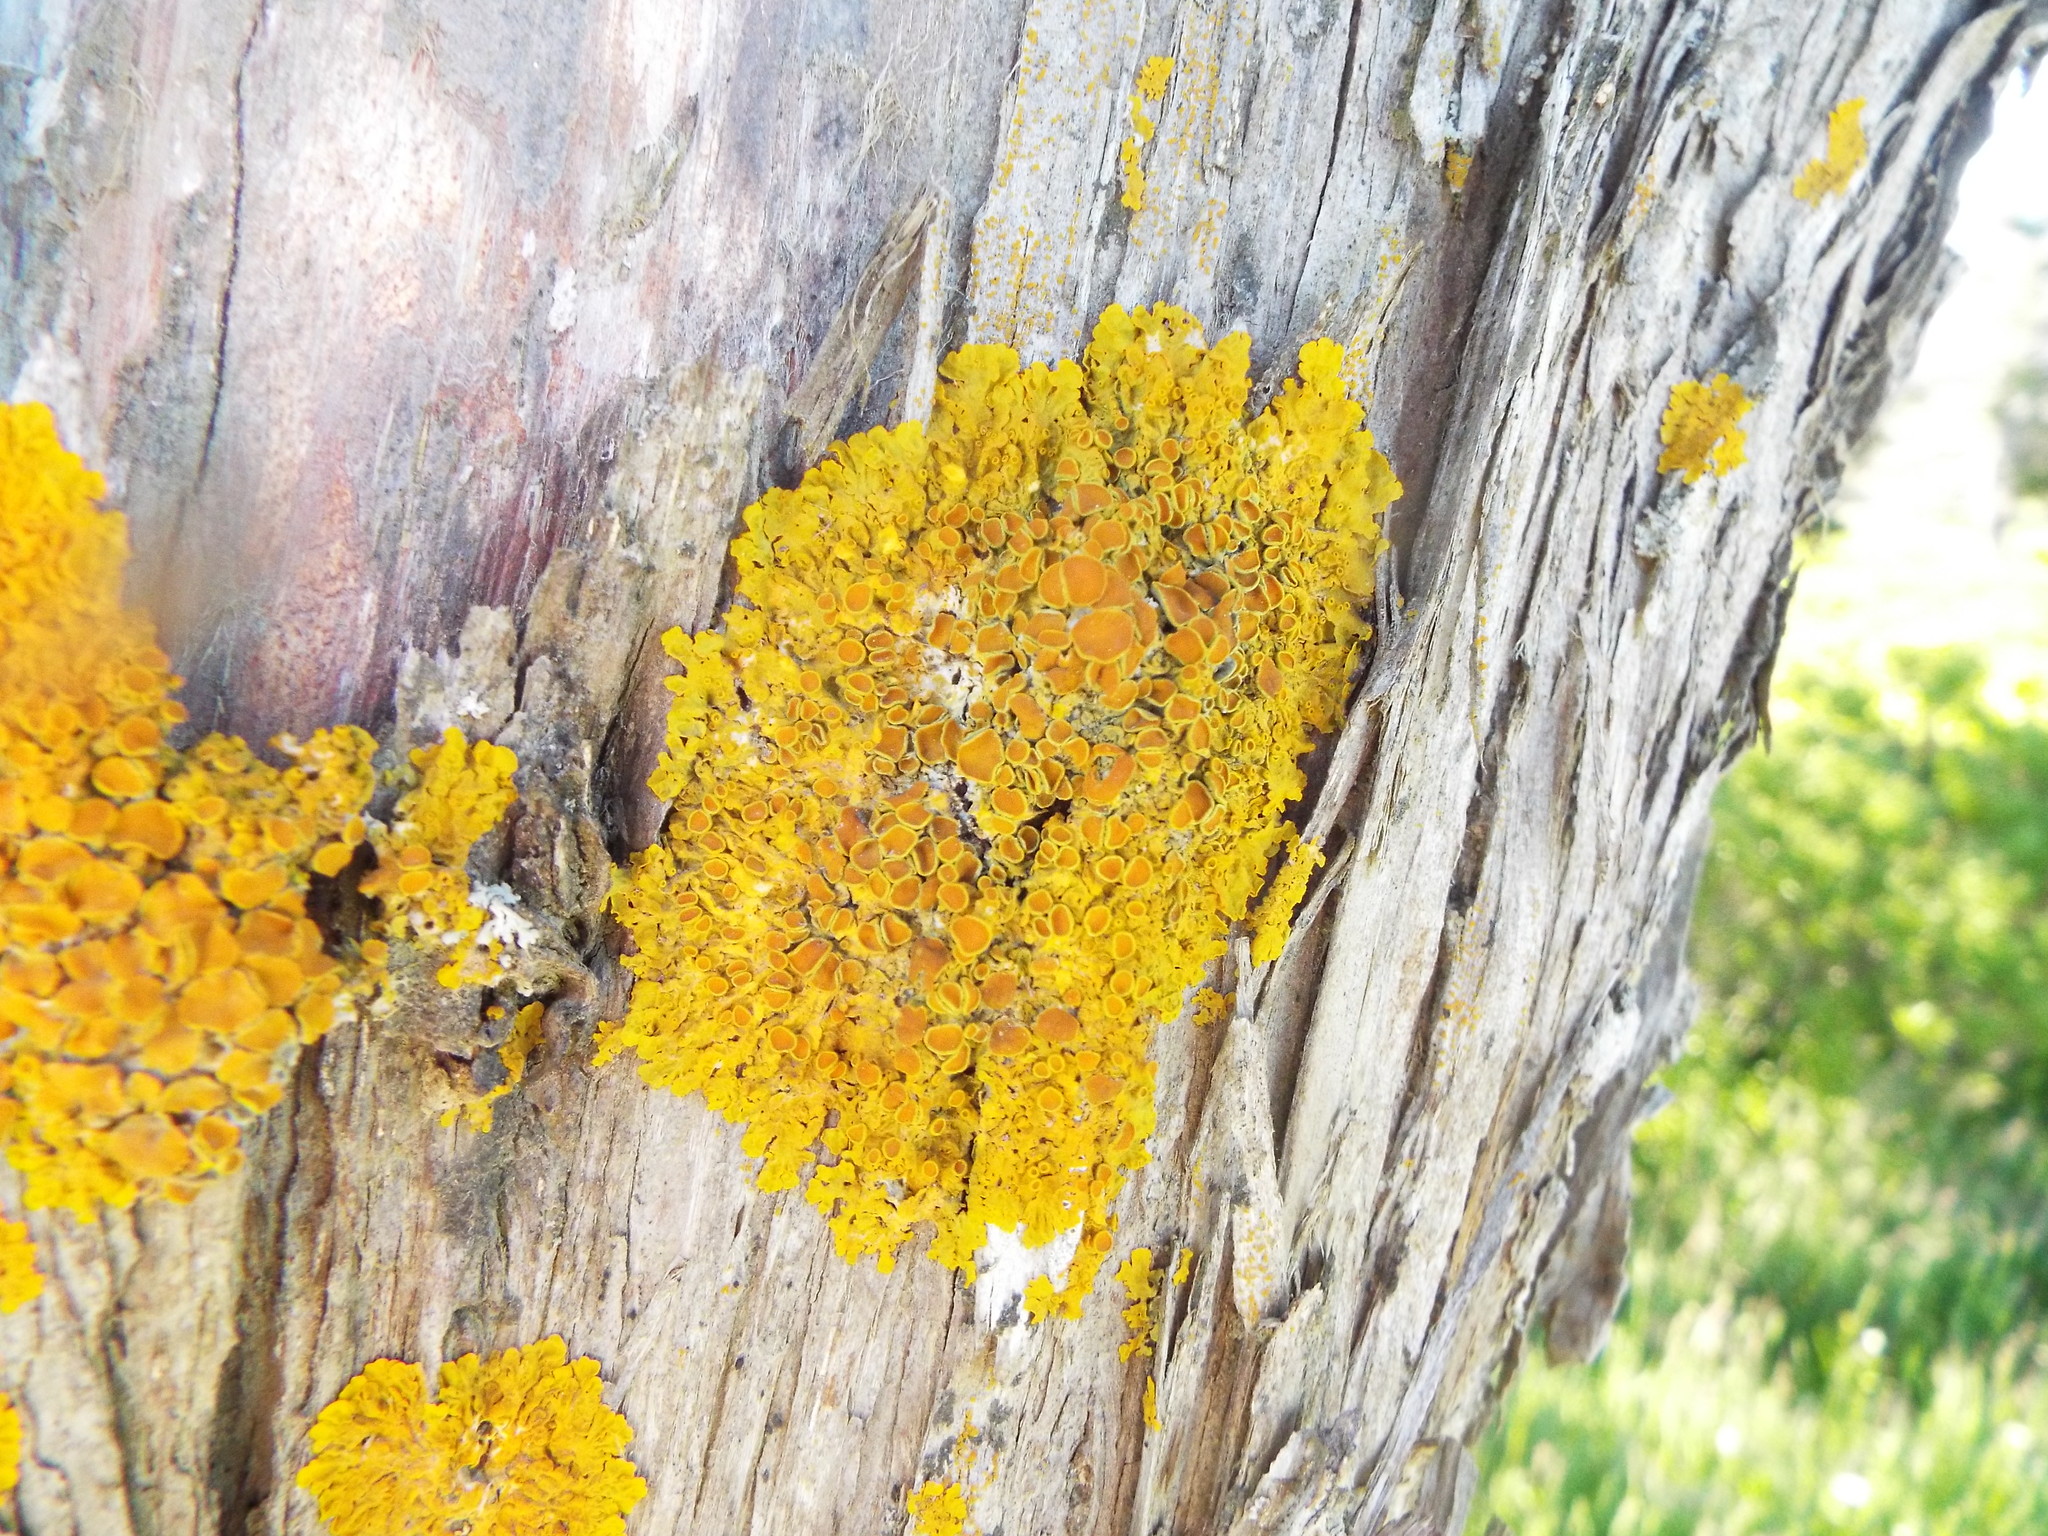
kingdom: Fungi
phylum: Ascomycota
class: Lecanoromycetes
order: Teloschistales
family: Teloschistaceae
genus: Xanthoria
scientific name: Xanthoria parietina
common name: Common orange lichen
